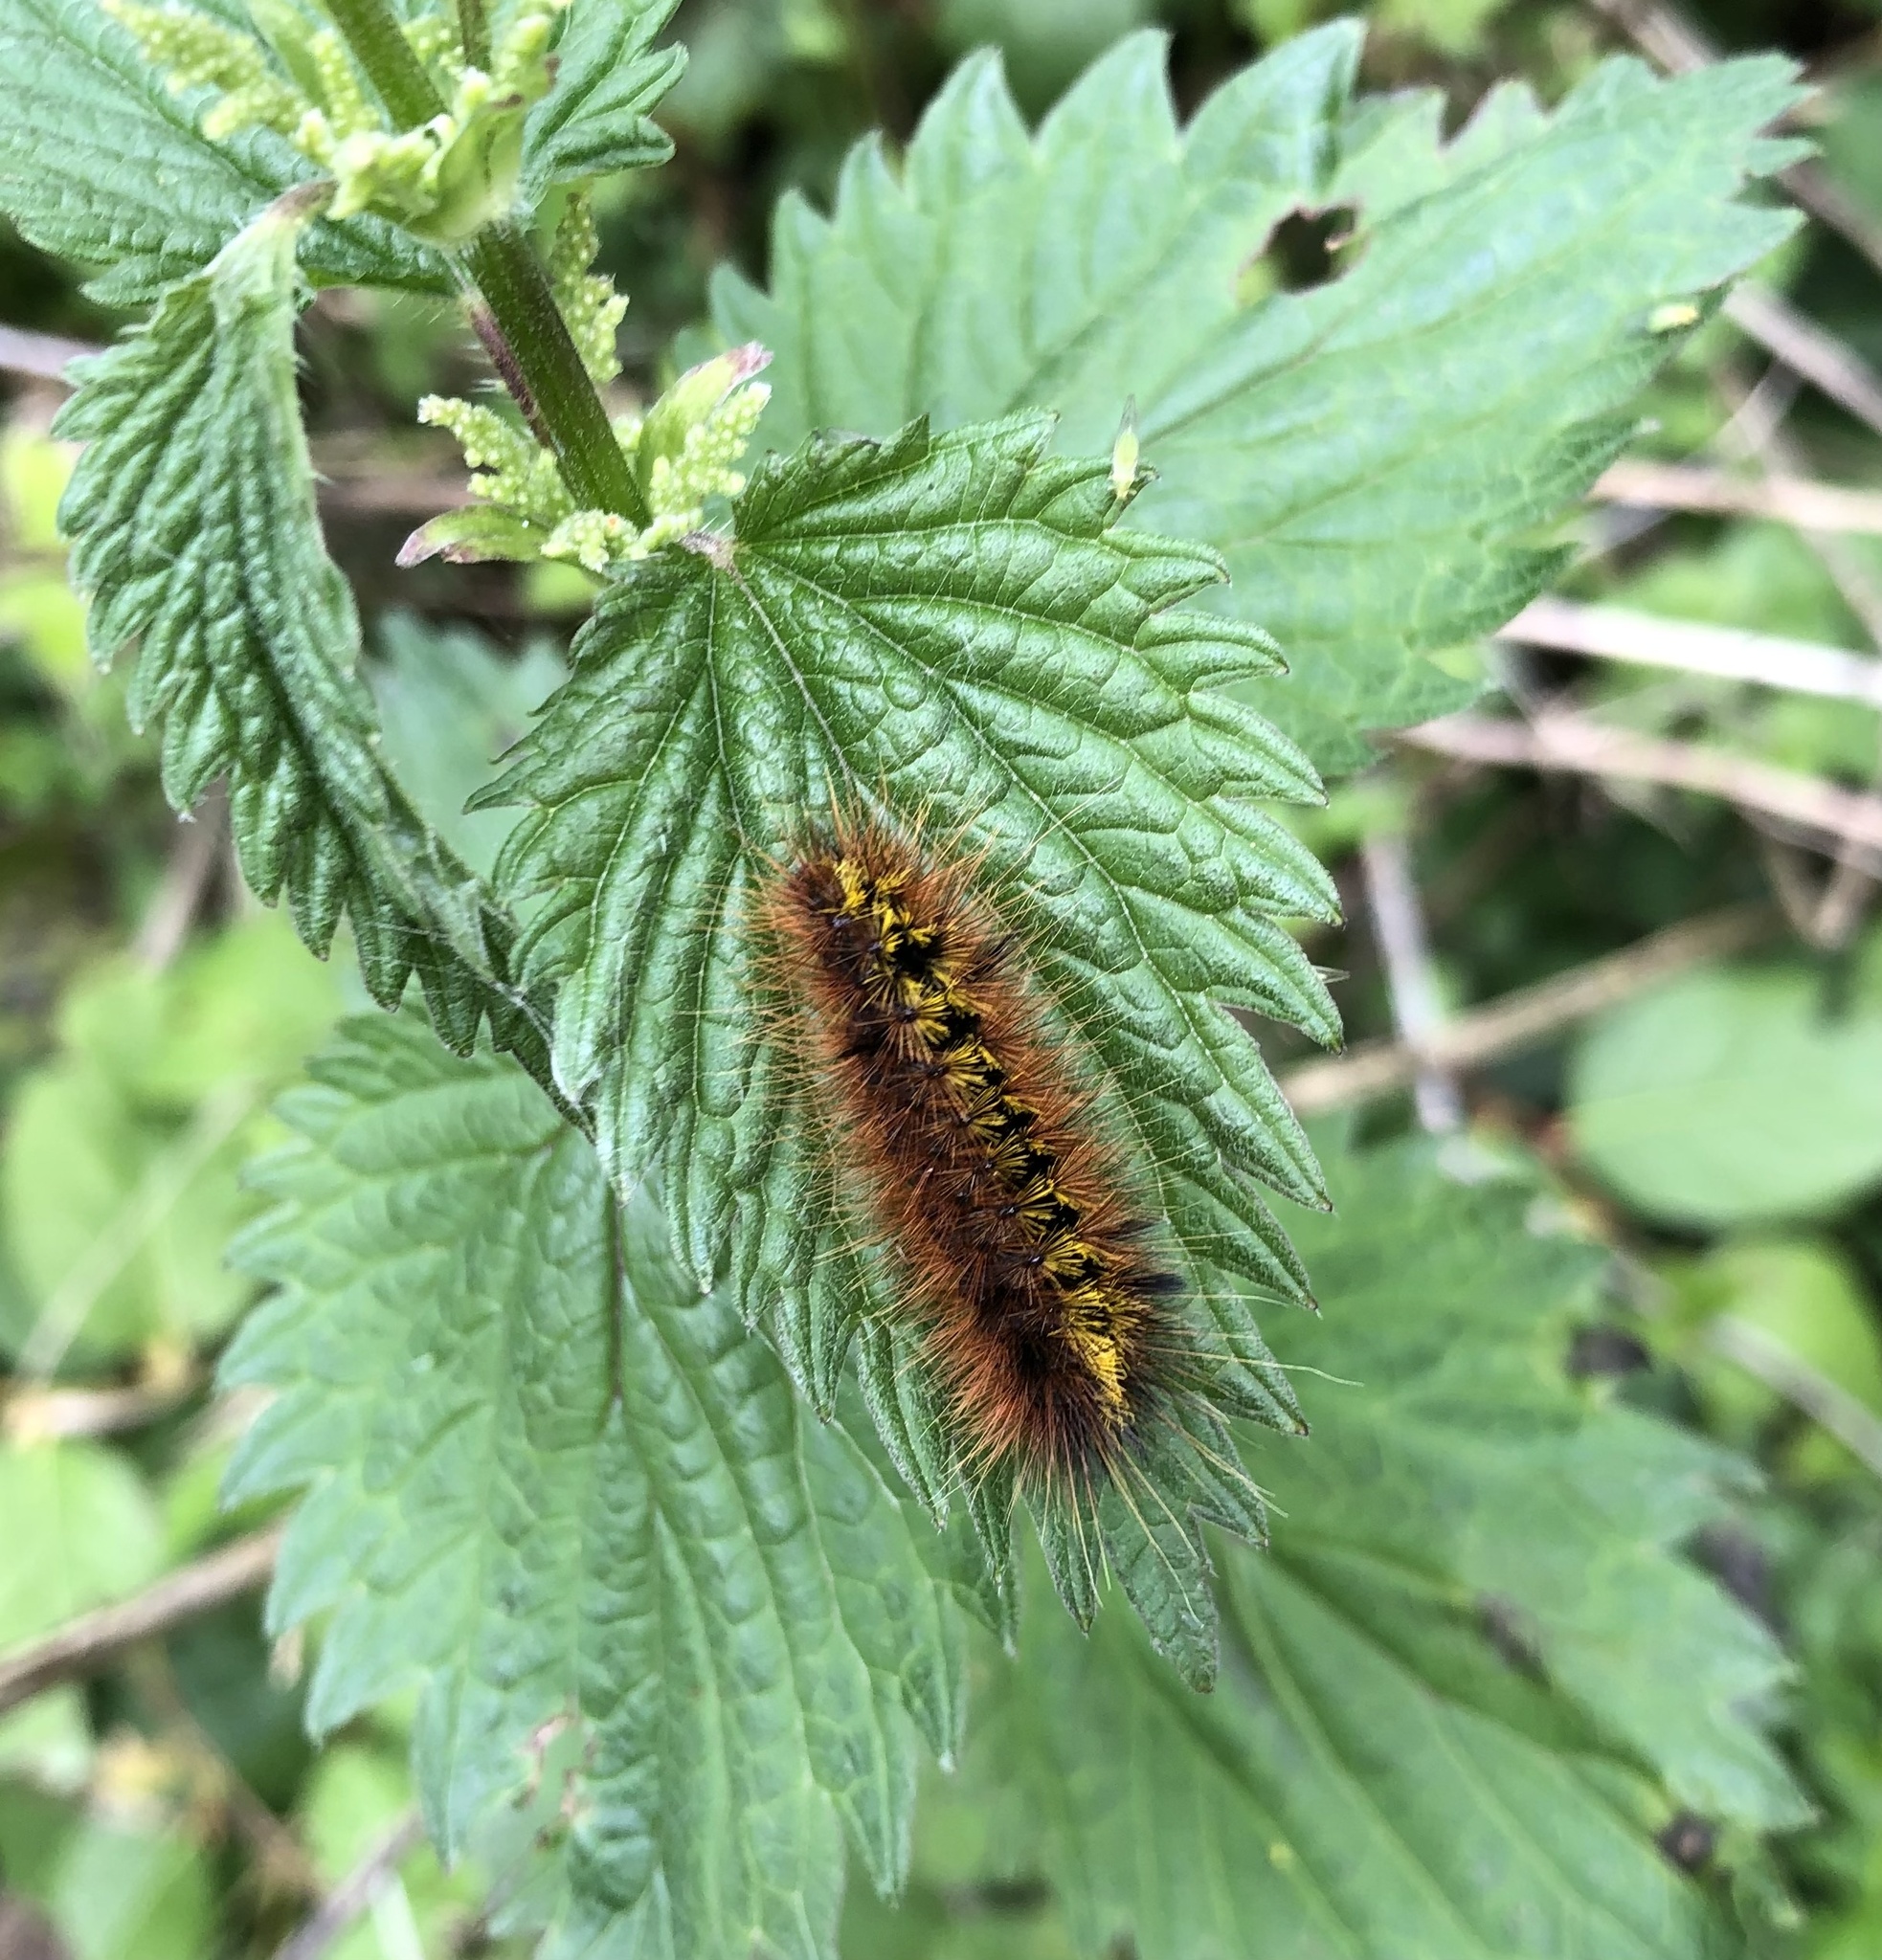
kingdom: Animalia
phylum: Arthropoda
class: Insecta
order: Lepidoptera
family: Erebidae
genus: Lophocampa
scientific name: Lophocampa argentata
